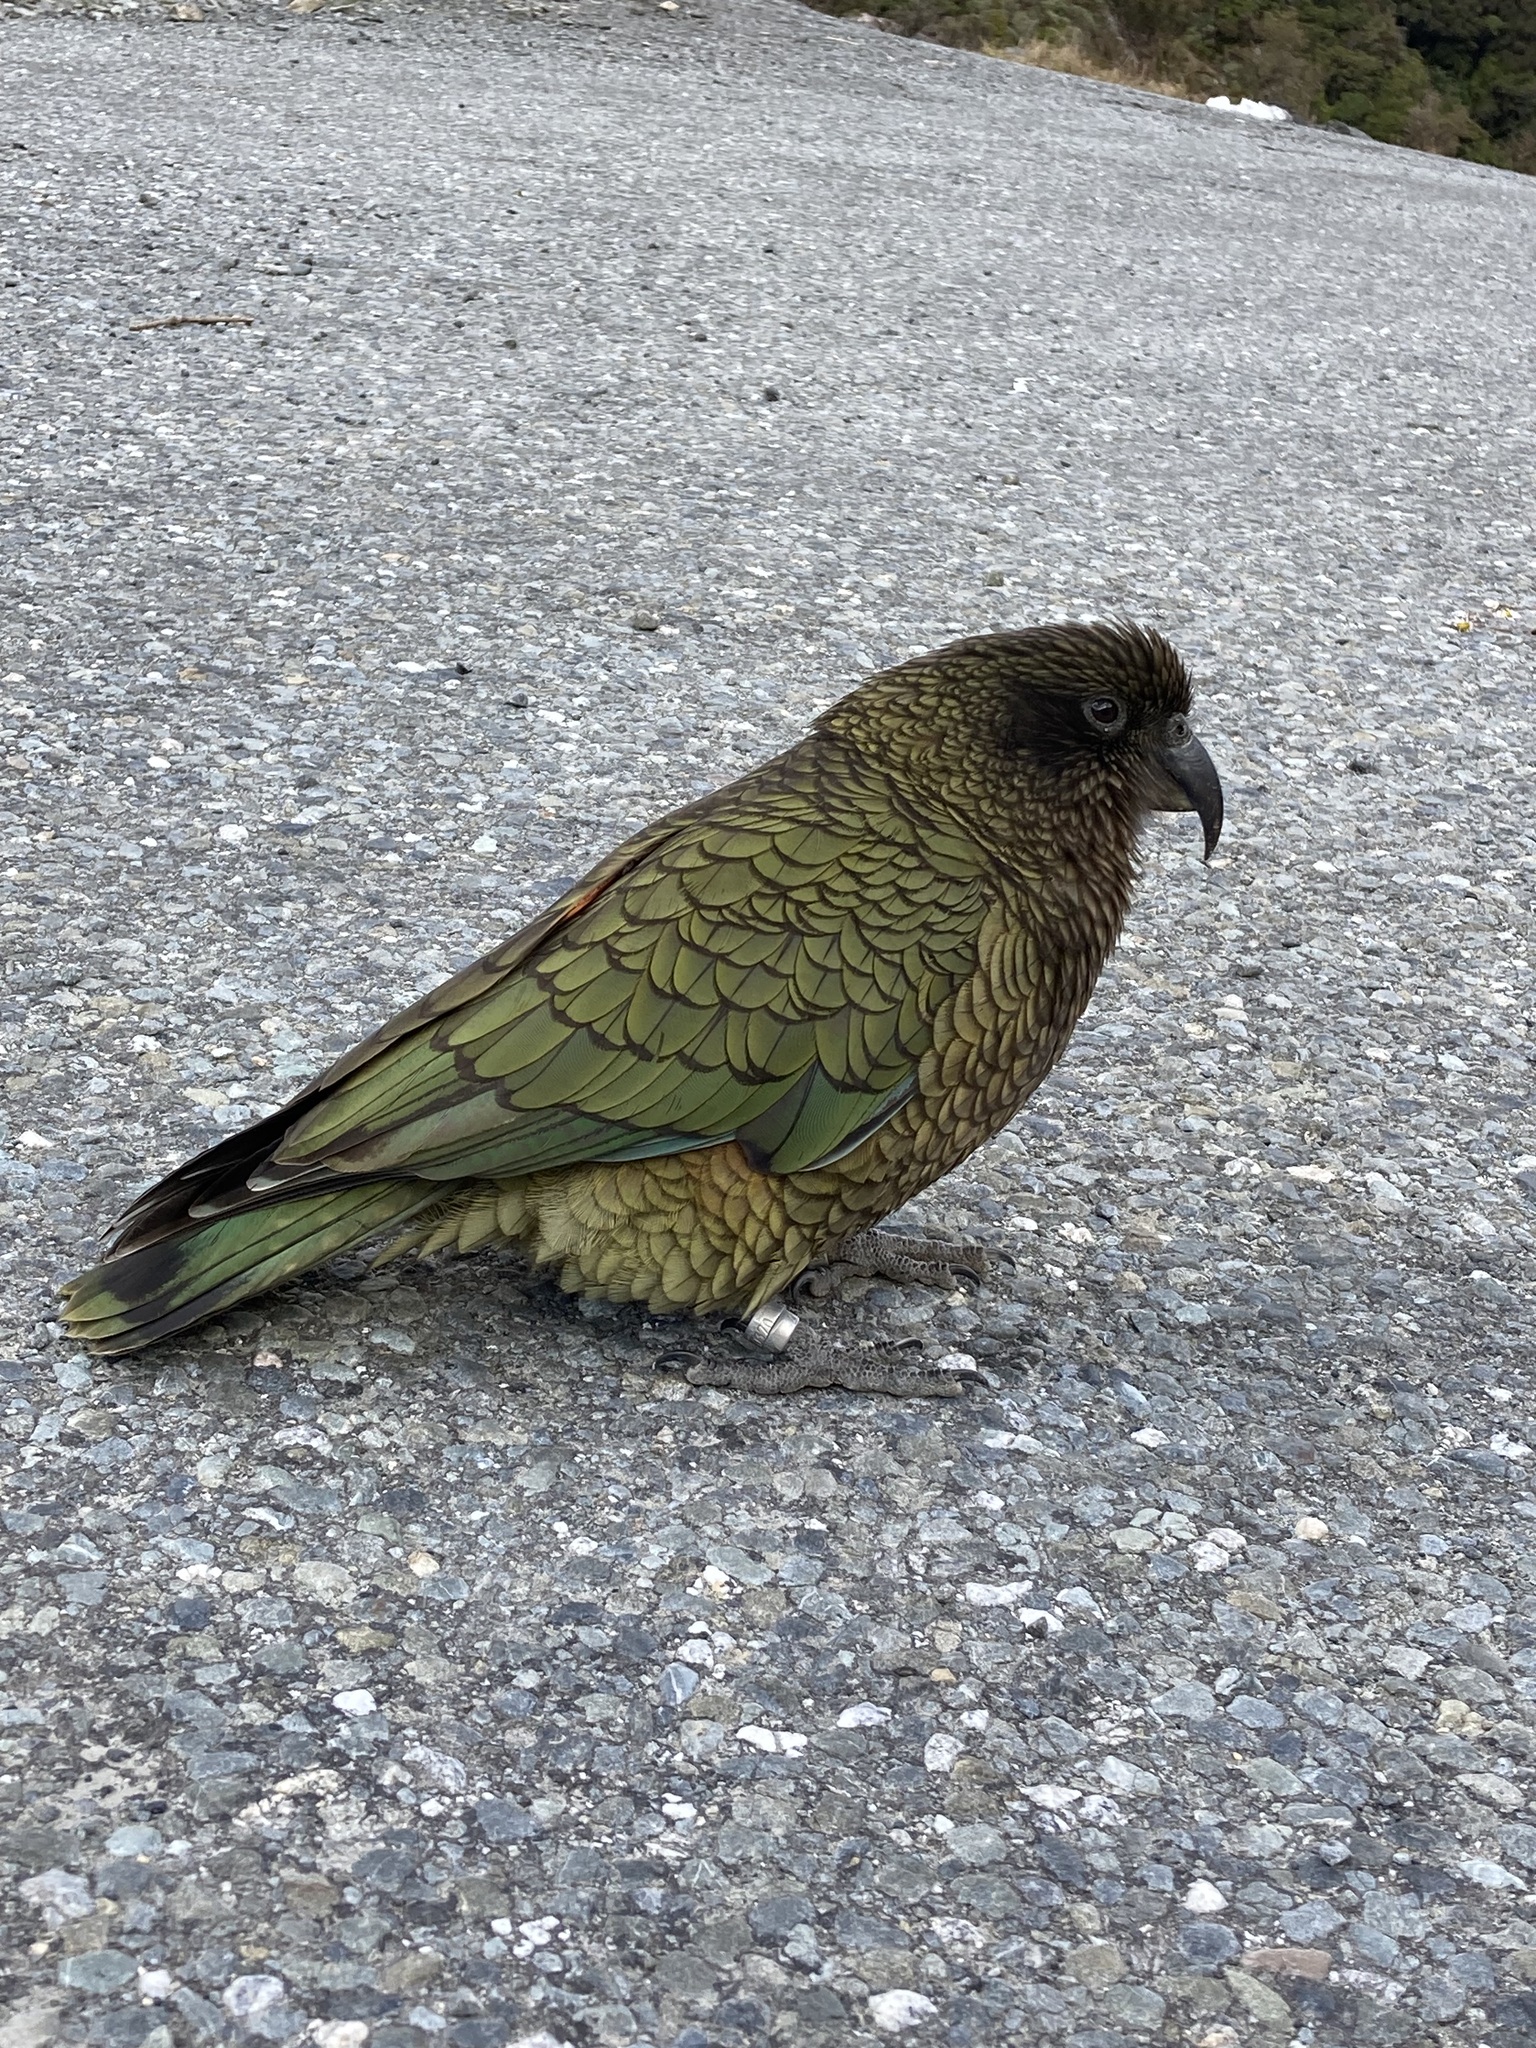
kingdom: Animalia
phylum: Chordata
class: Aves
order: Psittaciformes
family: Psittacidae
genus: Nestor
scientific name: Nestor notabilis
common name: Kea
